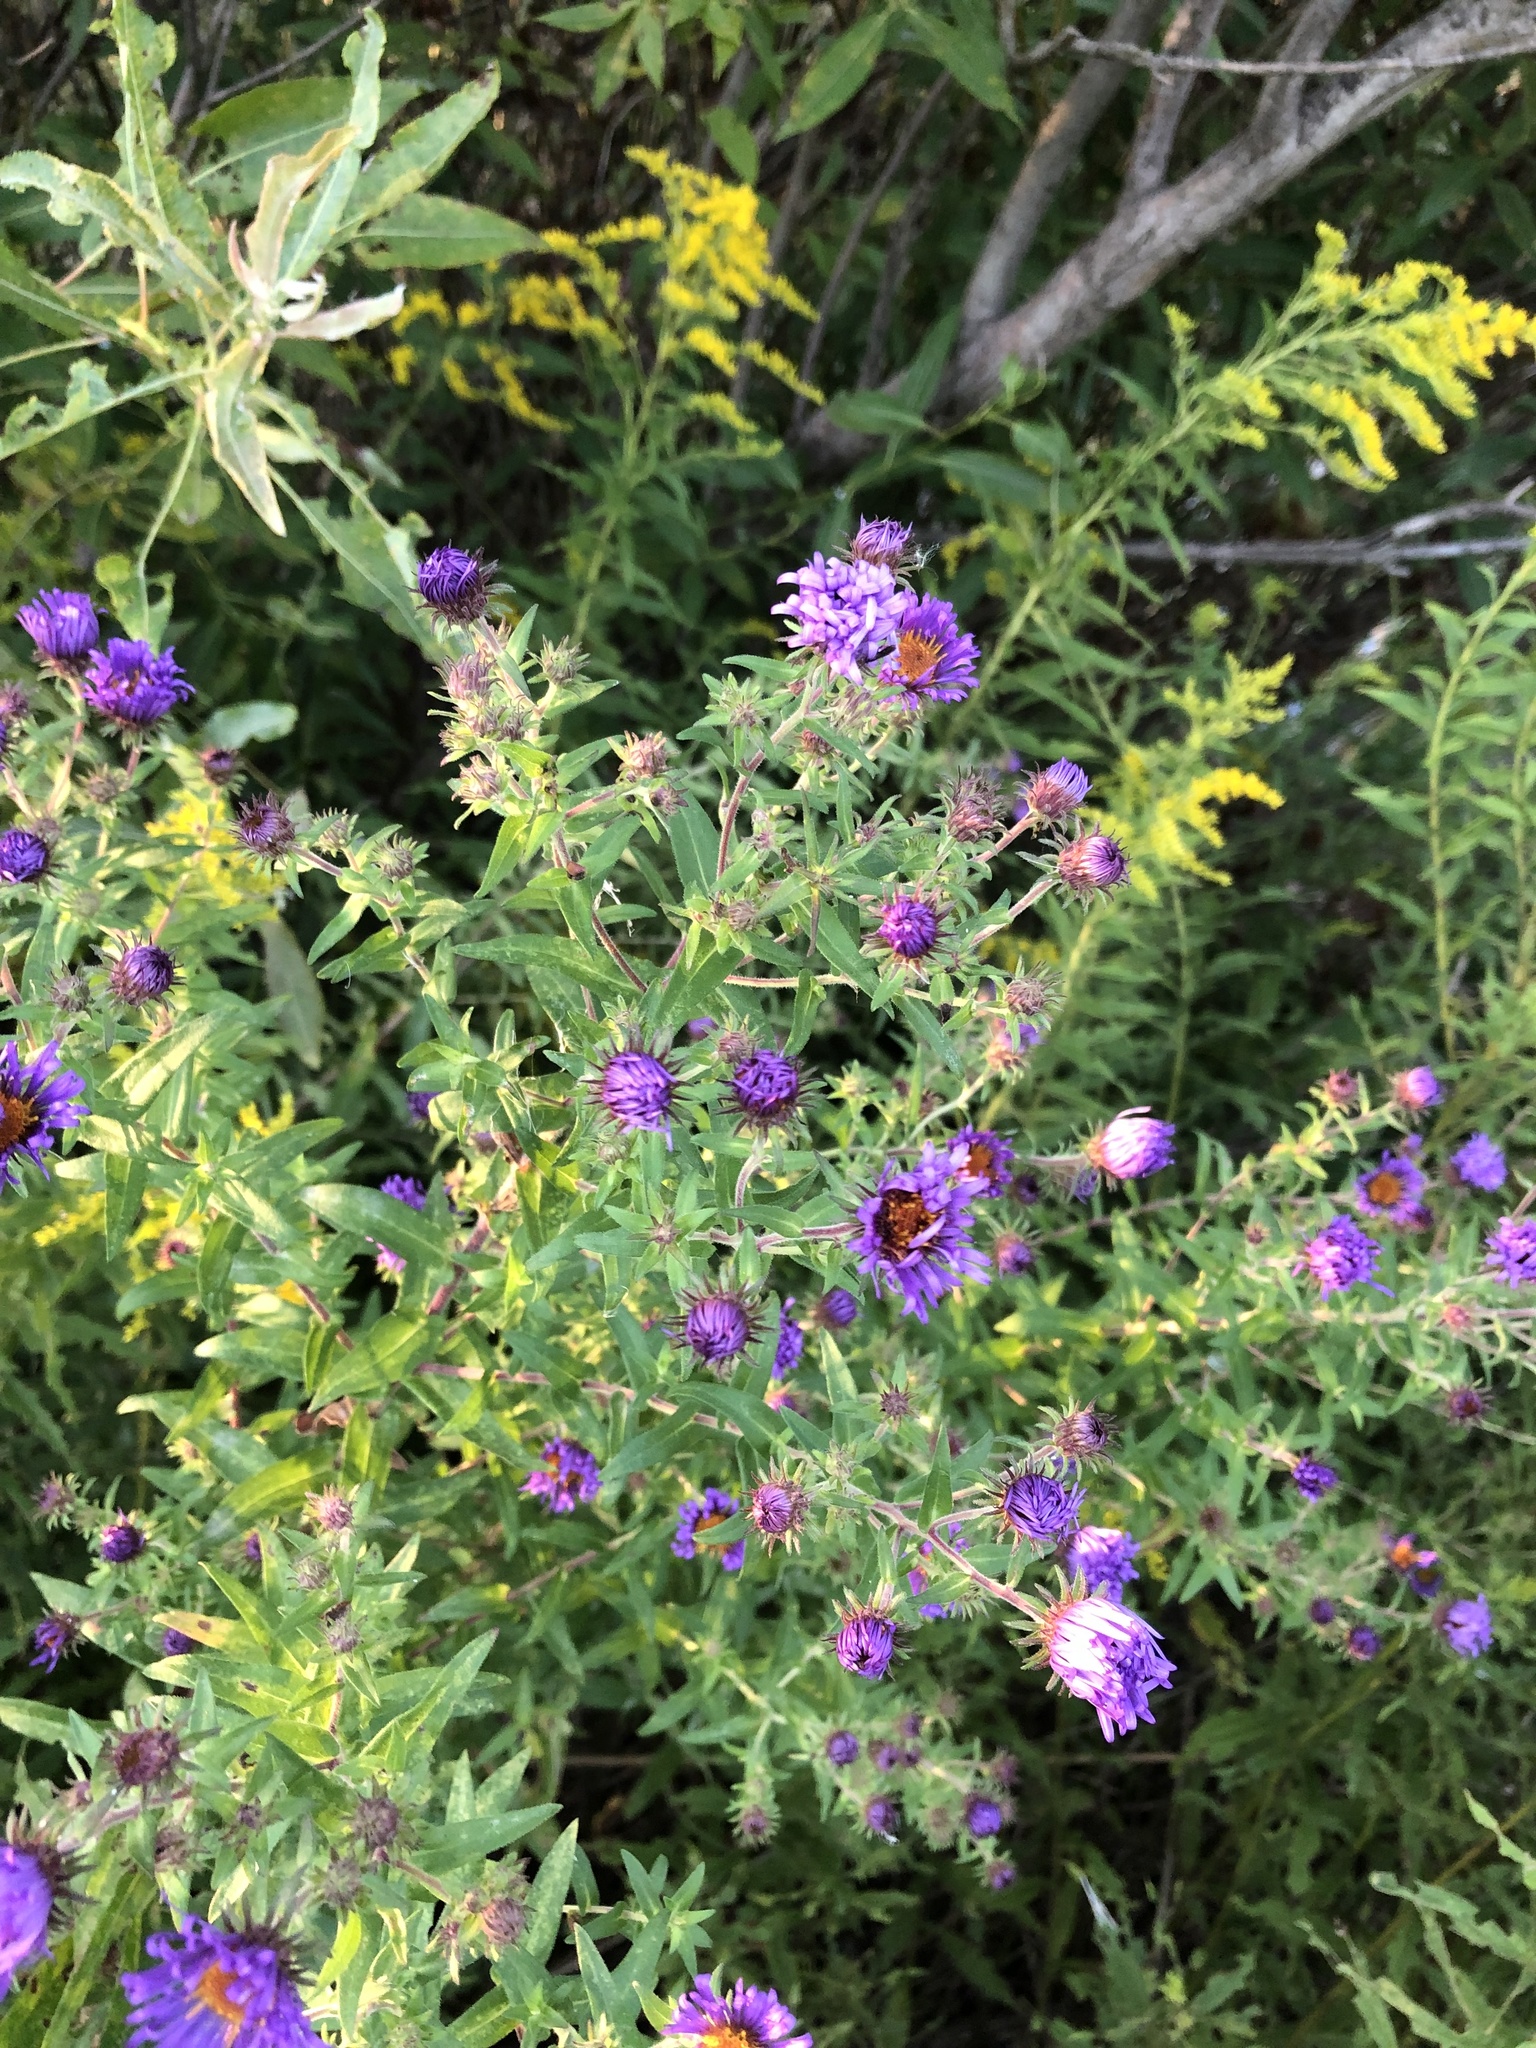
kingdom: Plantae
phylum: Tracheophyta
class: Magnoliopsida
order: Asterales
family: Asteraceae
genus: Symphyotrichum
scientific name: Symphyotrichum novae-angliae
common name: Michaelmas daisy
